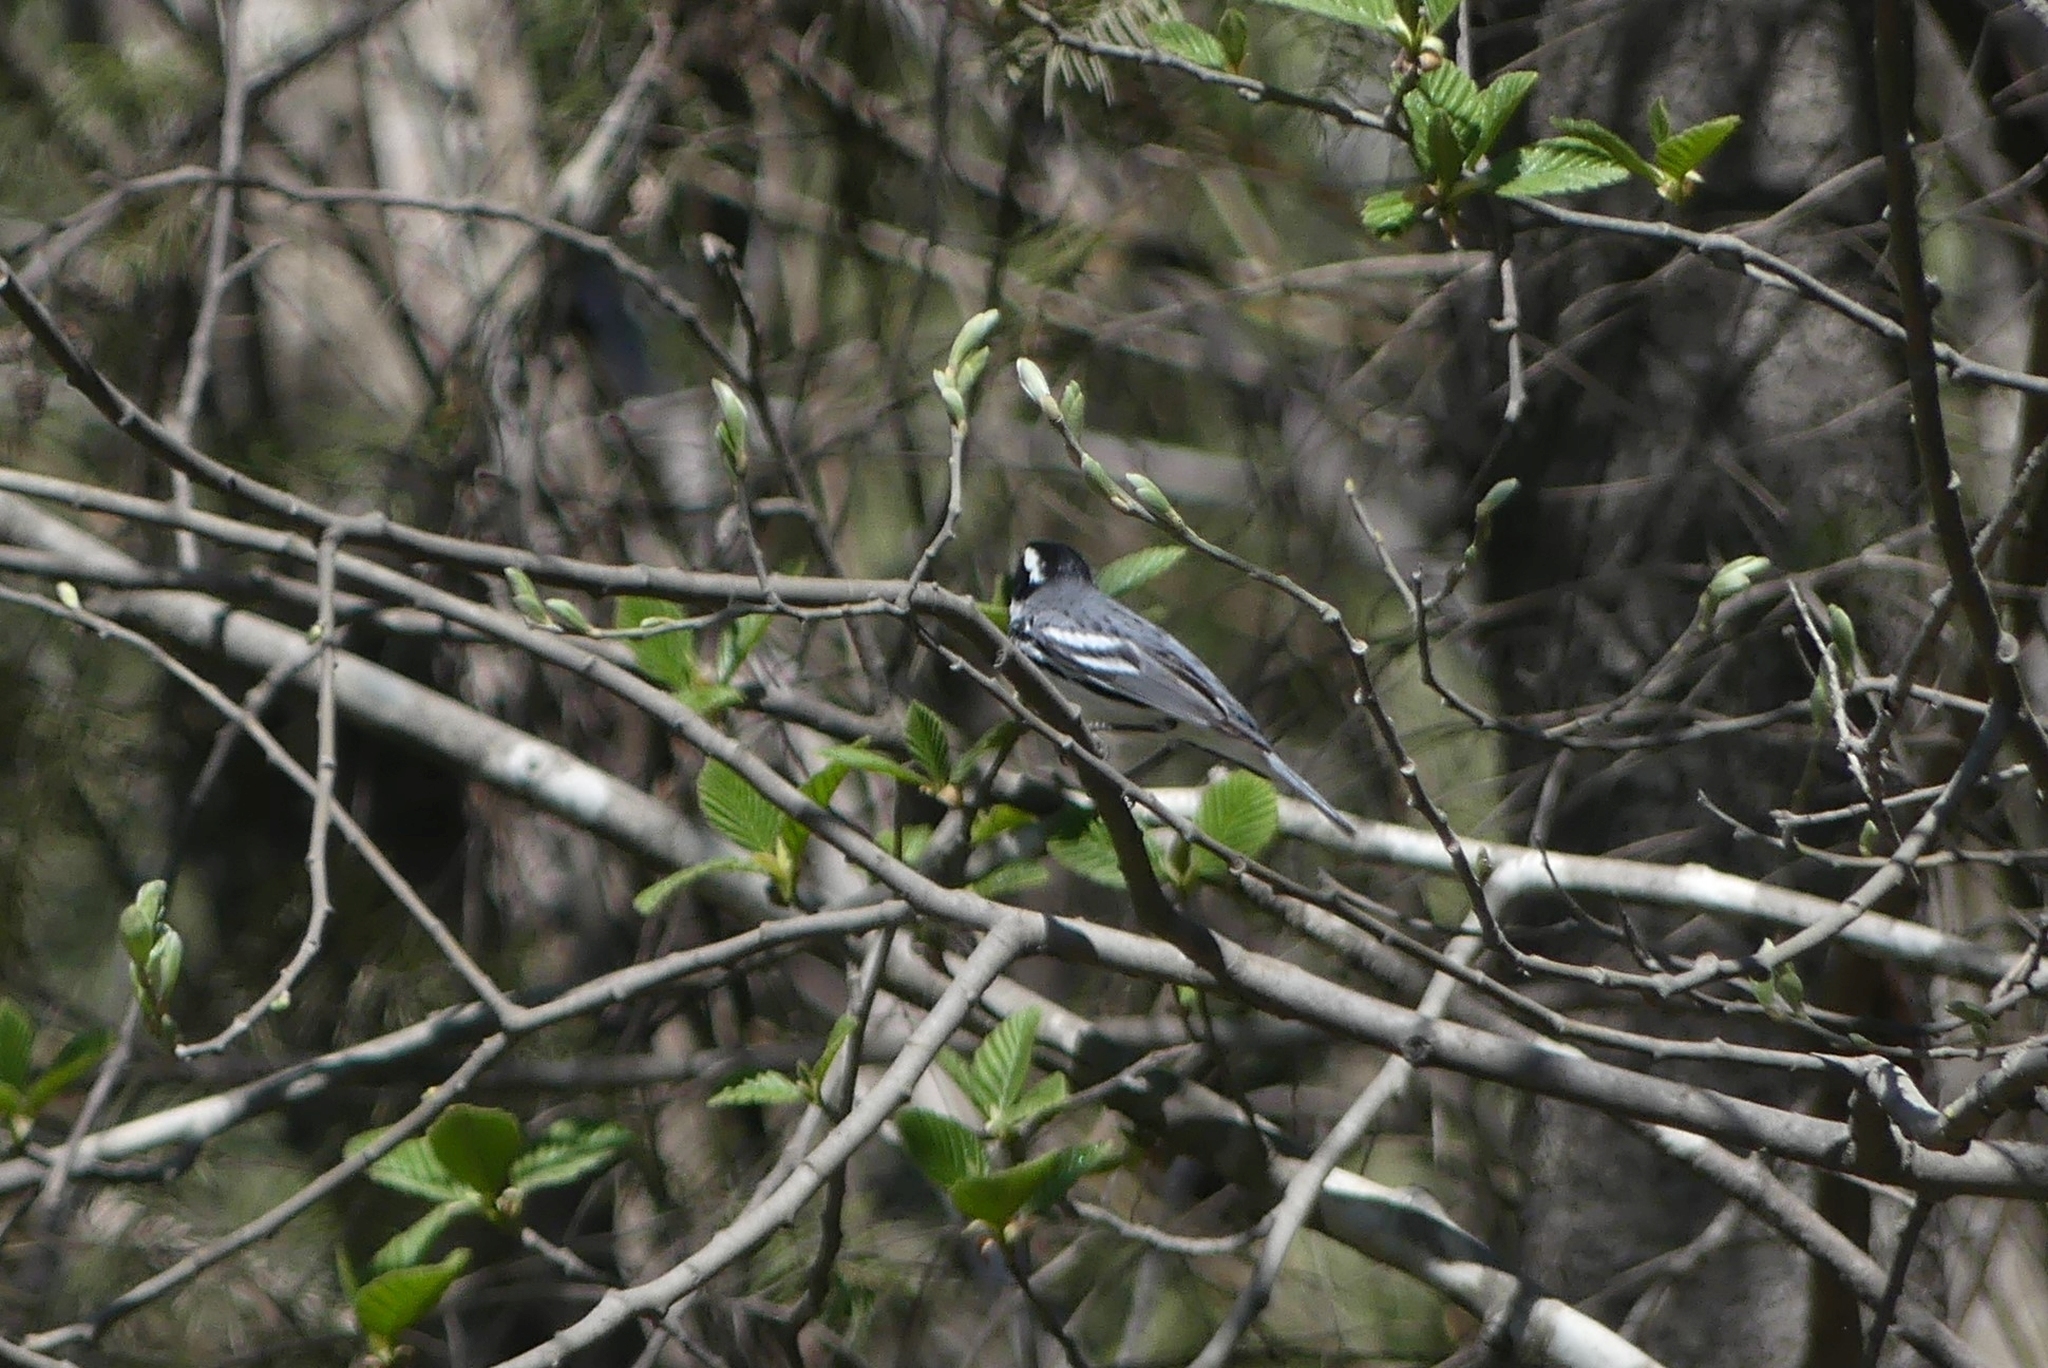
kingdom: Animalia
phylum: Chordata
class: Aves
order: Passeriformes
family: Parulidae
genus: Setophaga
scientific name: Setophaga nigrescens
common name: Black-throated gray warbler
